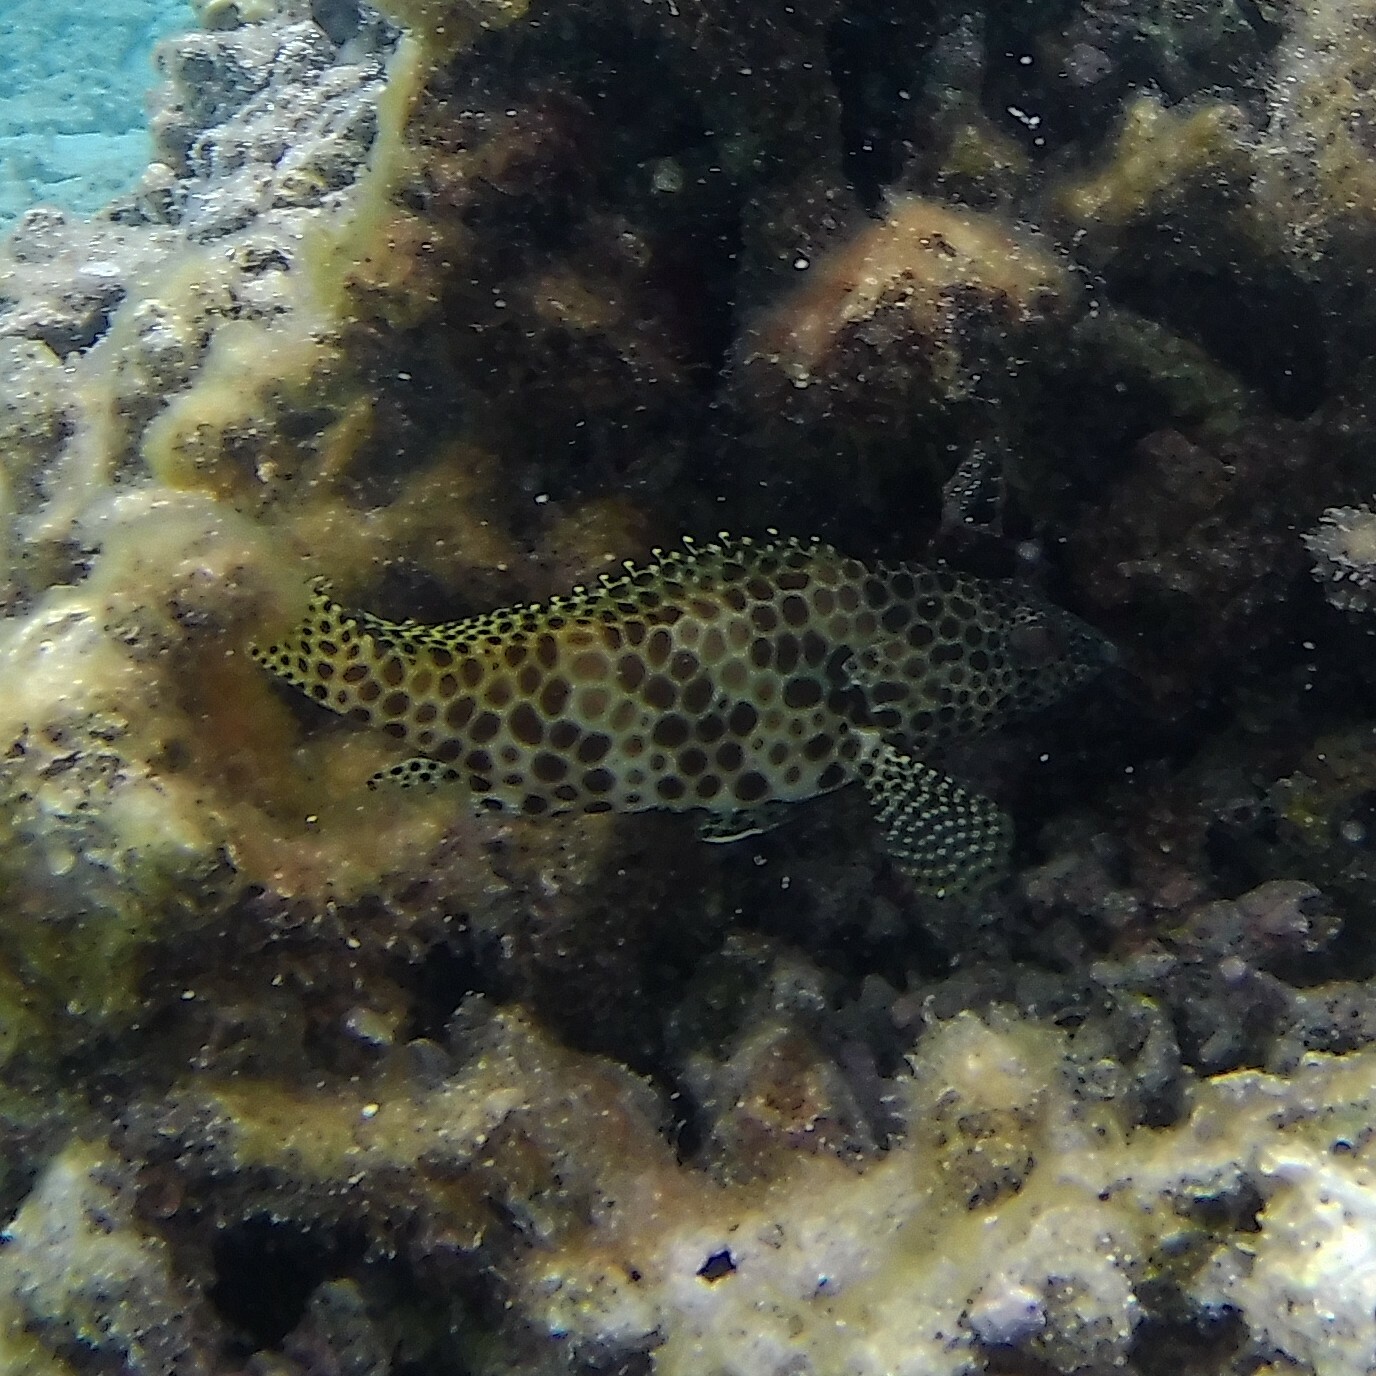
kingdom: Animalia
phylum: Chordata
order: Perciformes
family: Serranidae
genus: Epinephelus
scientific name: Epinephelus merra
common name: Honeycomb grouper
